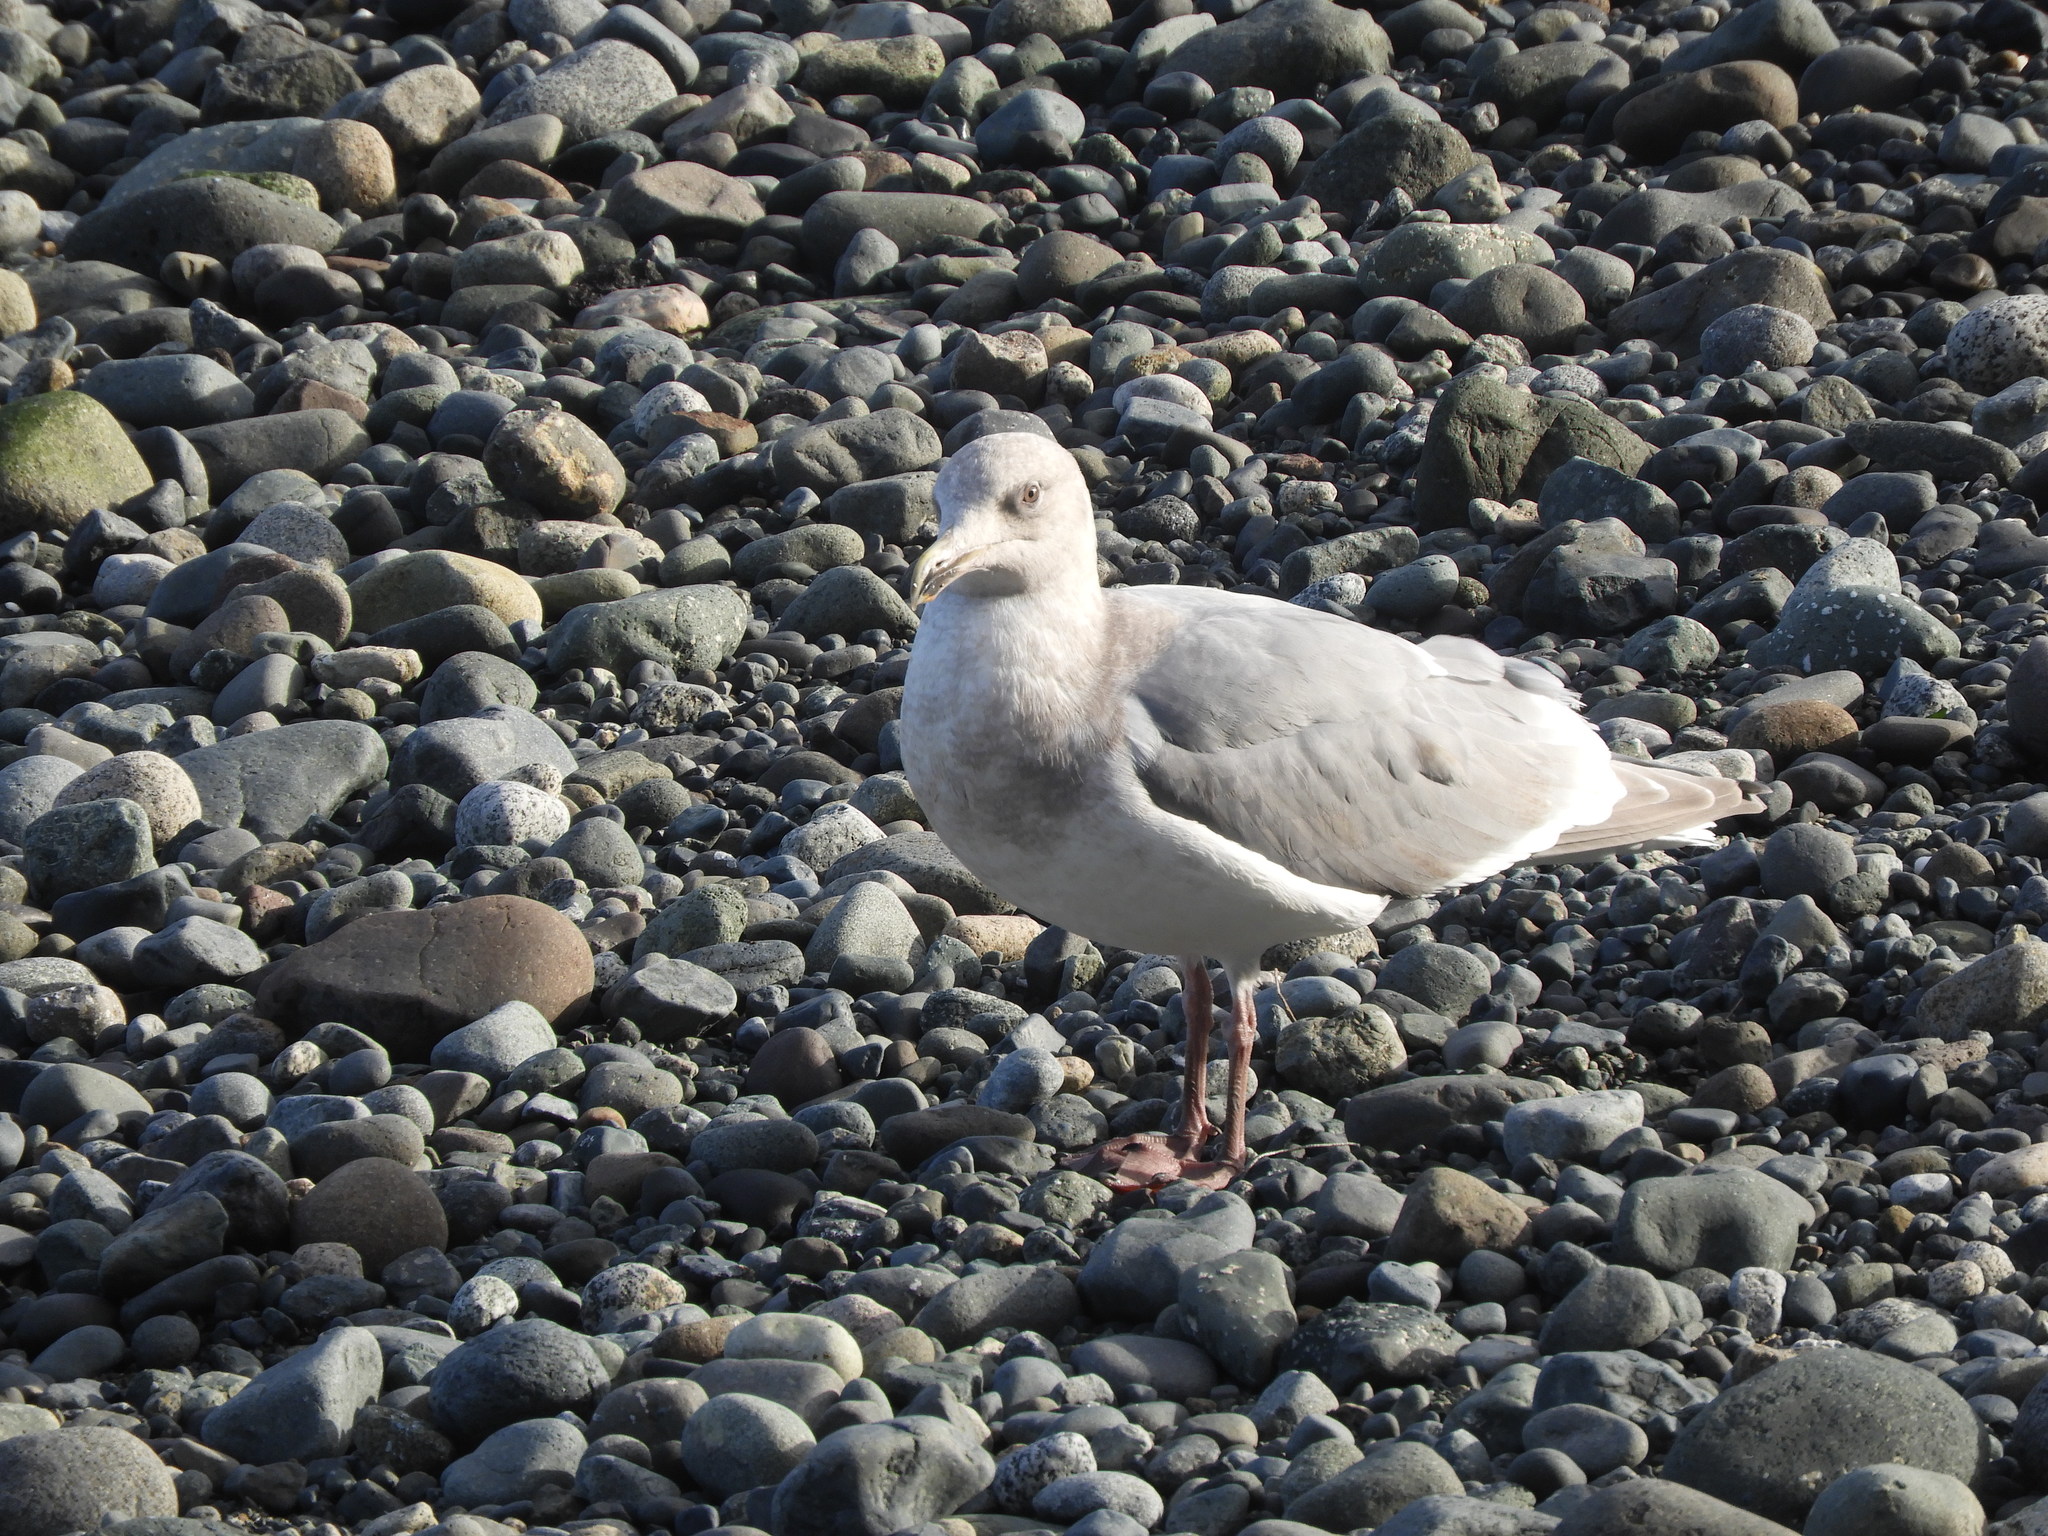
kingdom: Animalia
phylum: Chordata
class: Aves
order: Charadriiformes
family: Laridae
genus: Larus
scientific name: Larus glaucescens
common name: Glaucous-winged gull
